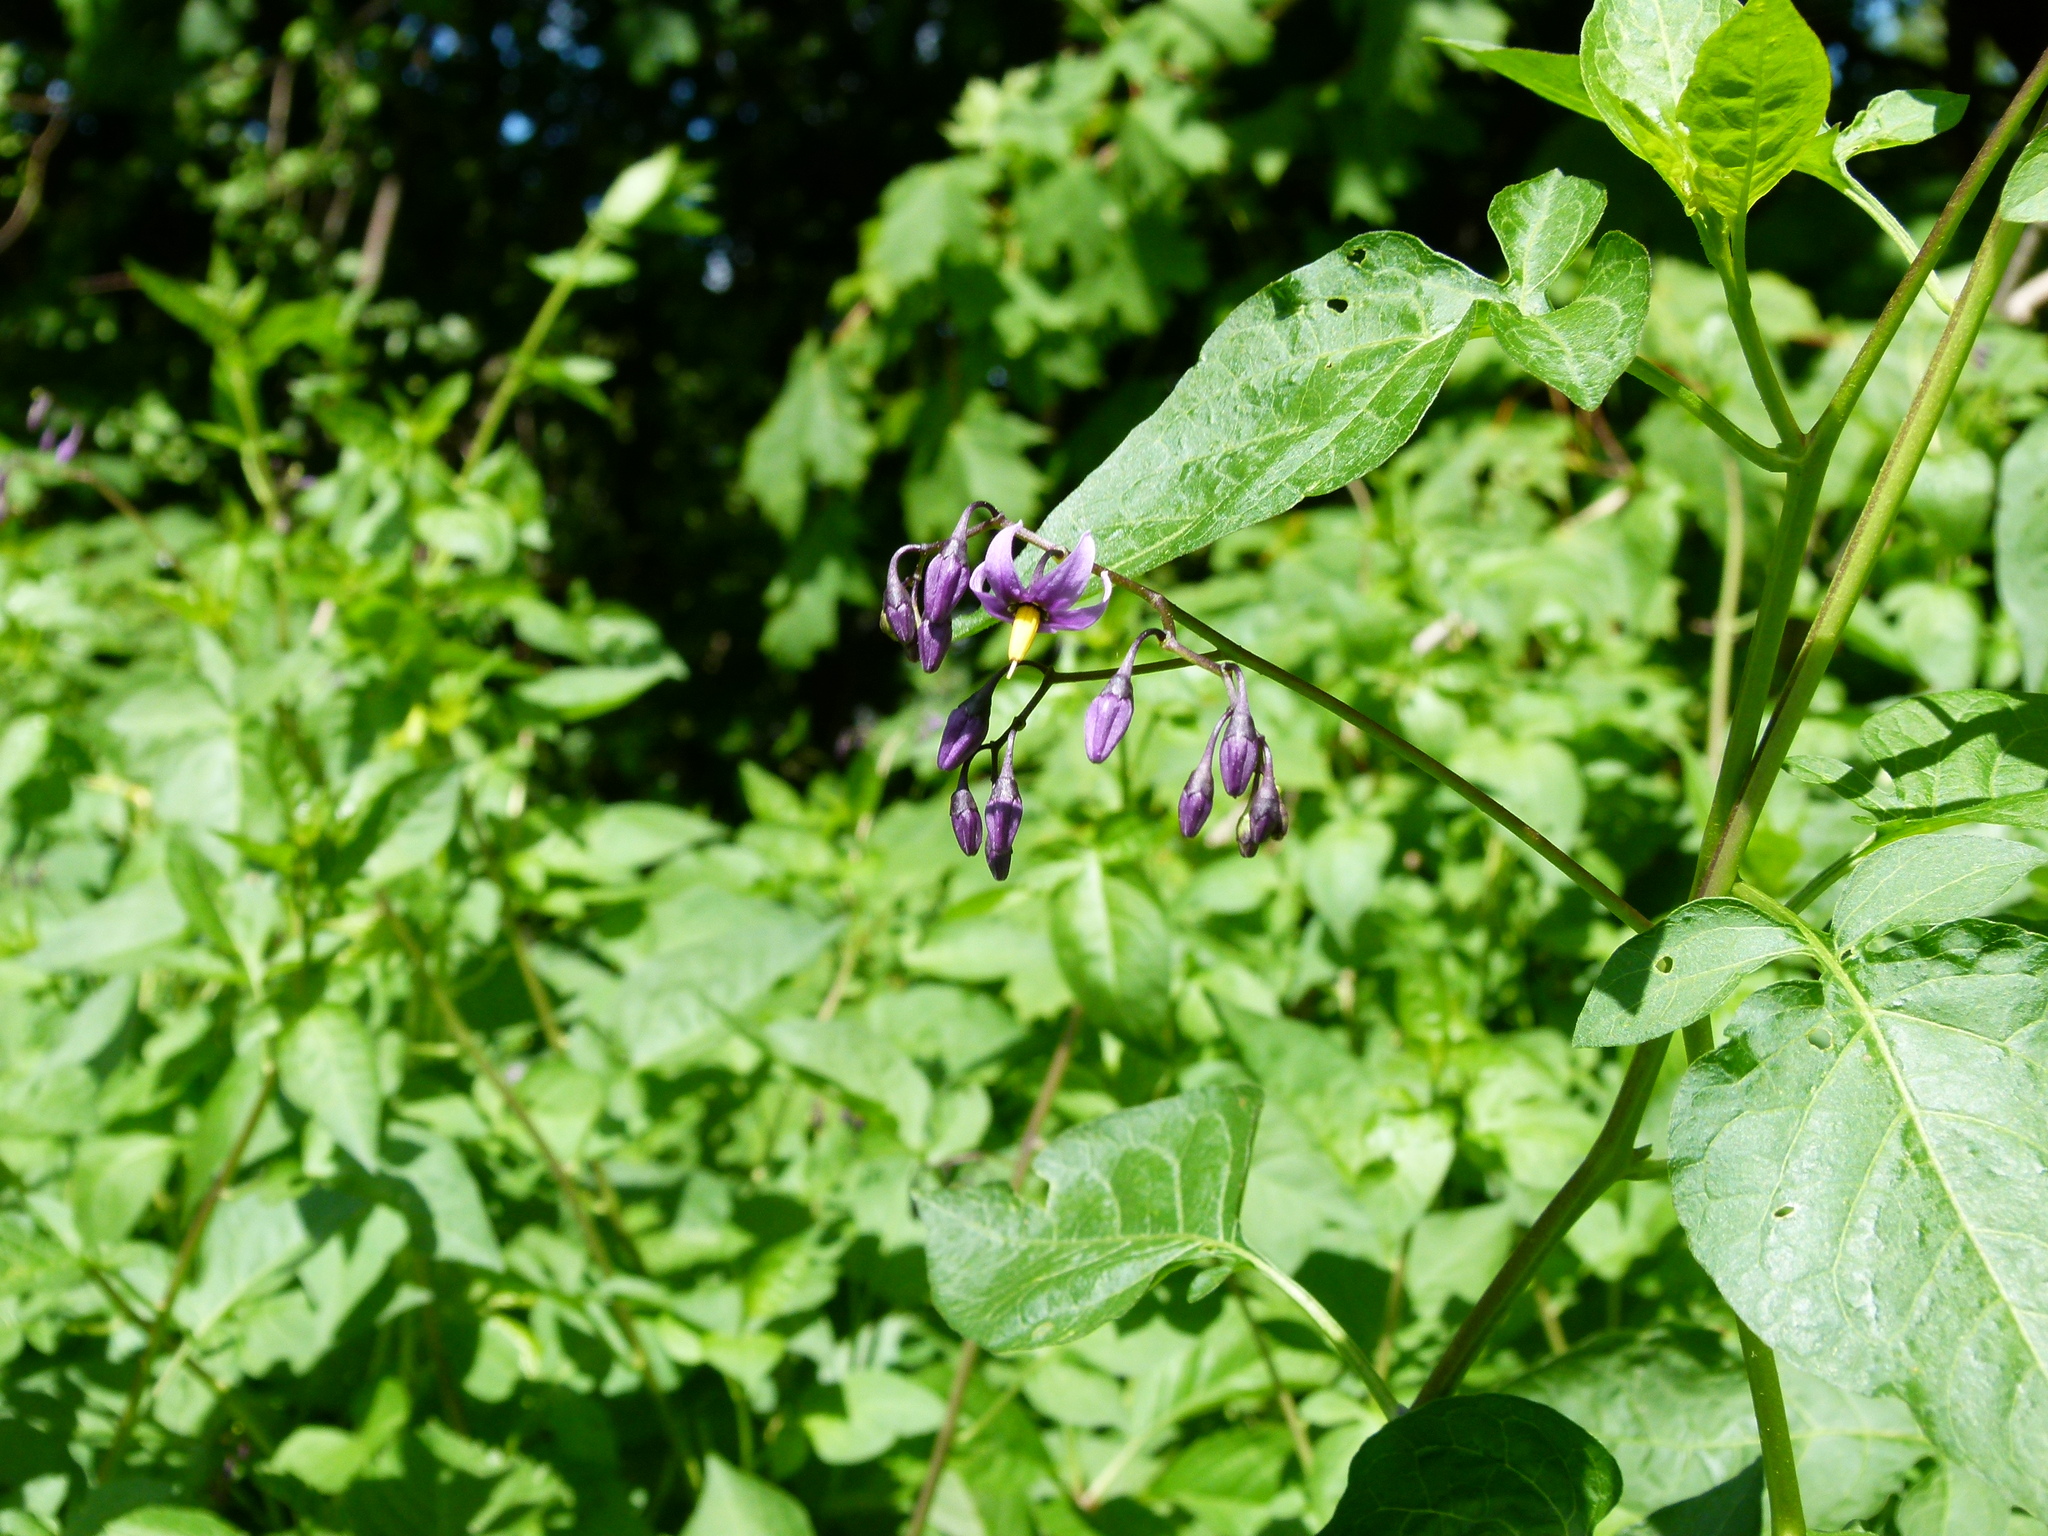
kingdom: Plantae
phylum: Tracheophyta
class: Magnoliopsida
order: Solanales
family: Solanaceae
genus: Solanum
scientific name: Solanum dulcamara
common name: Climbing nightshade
